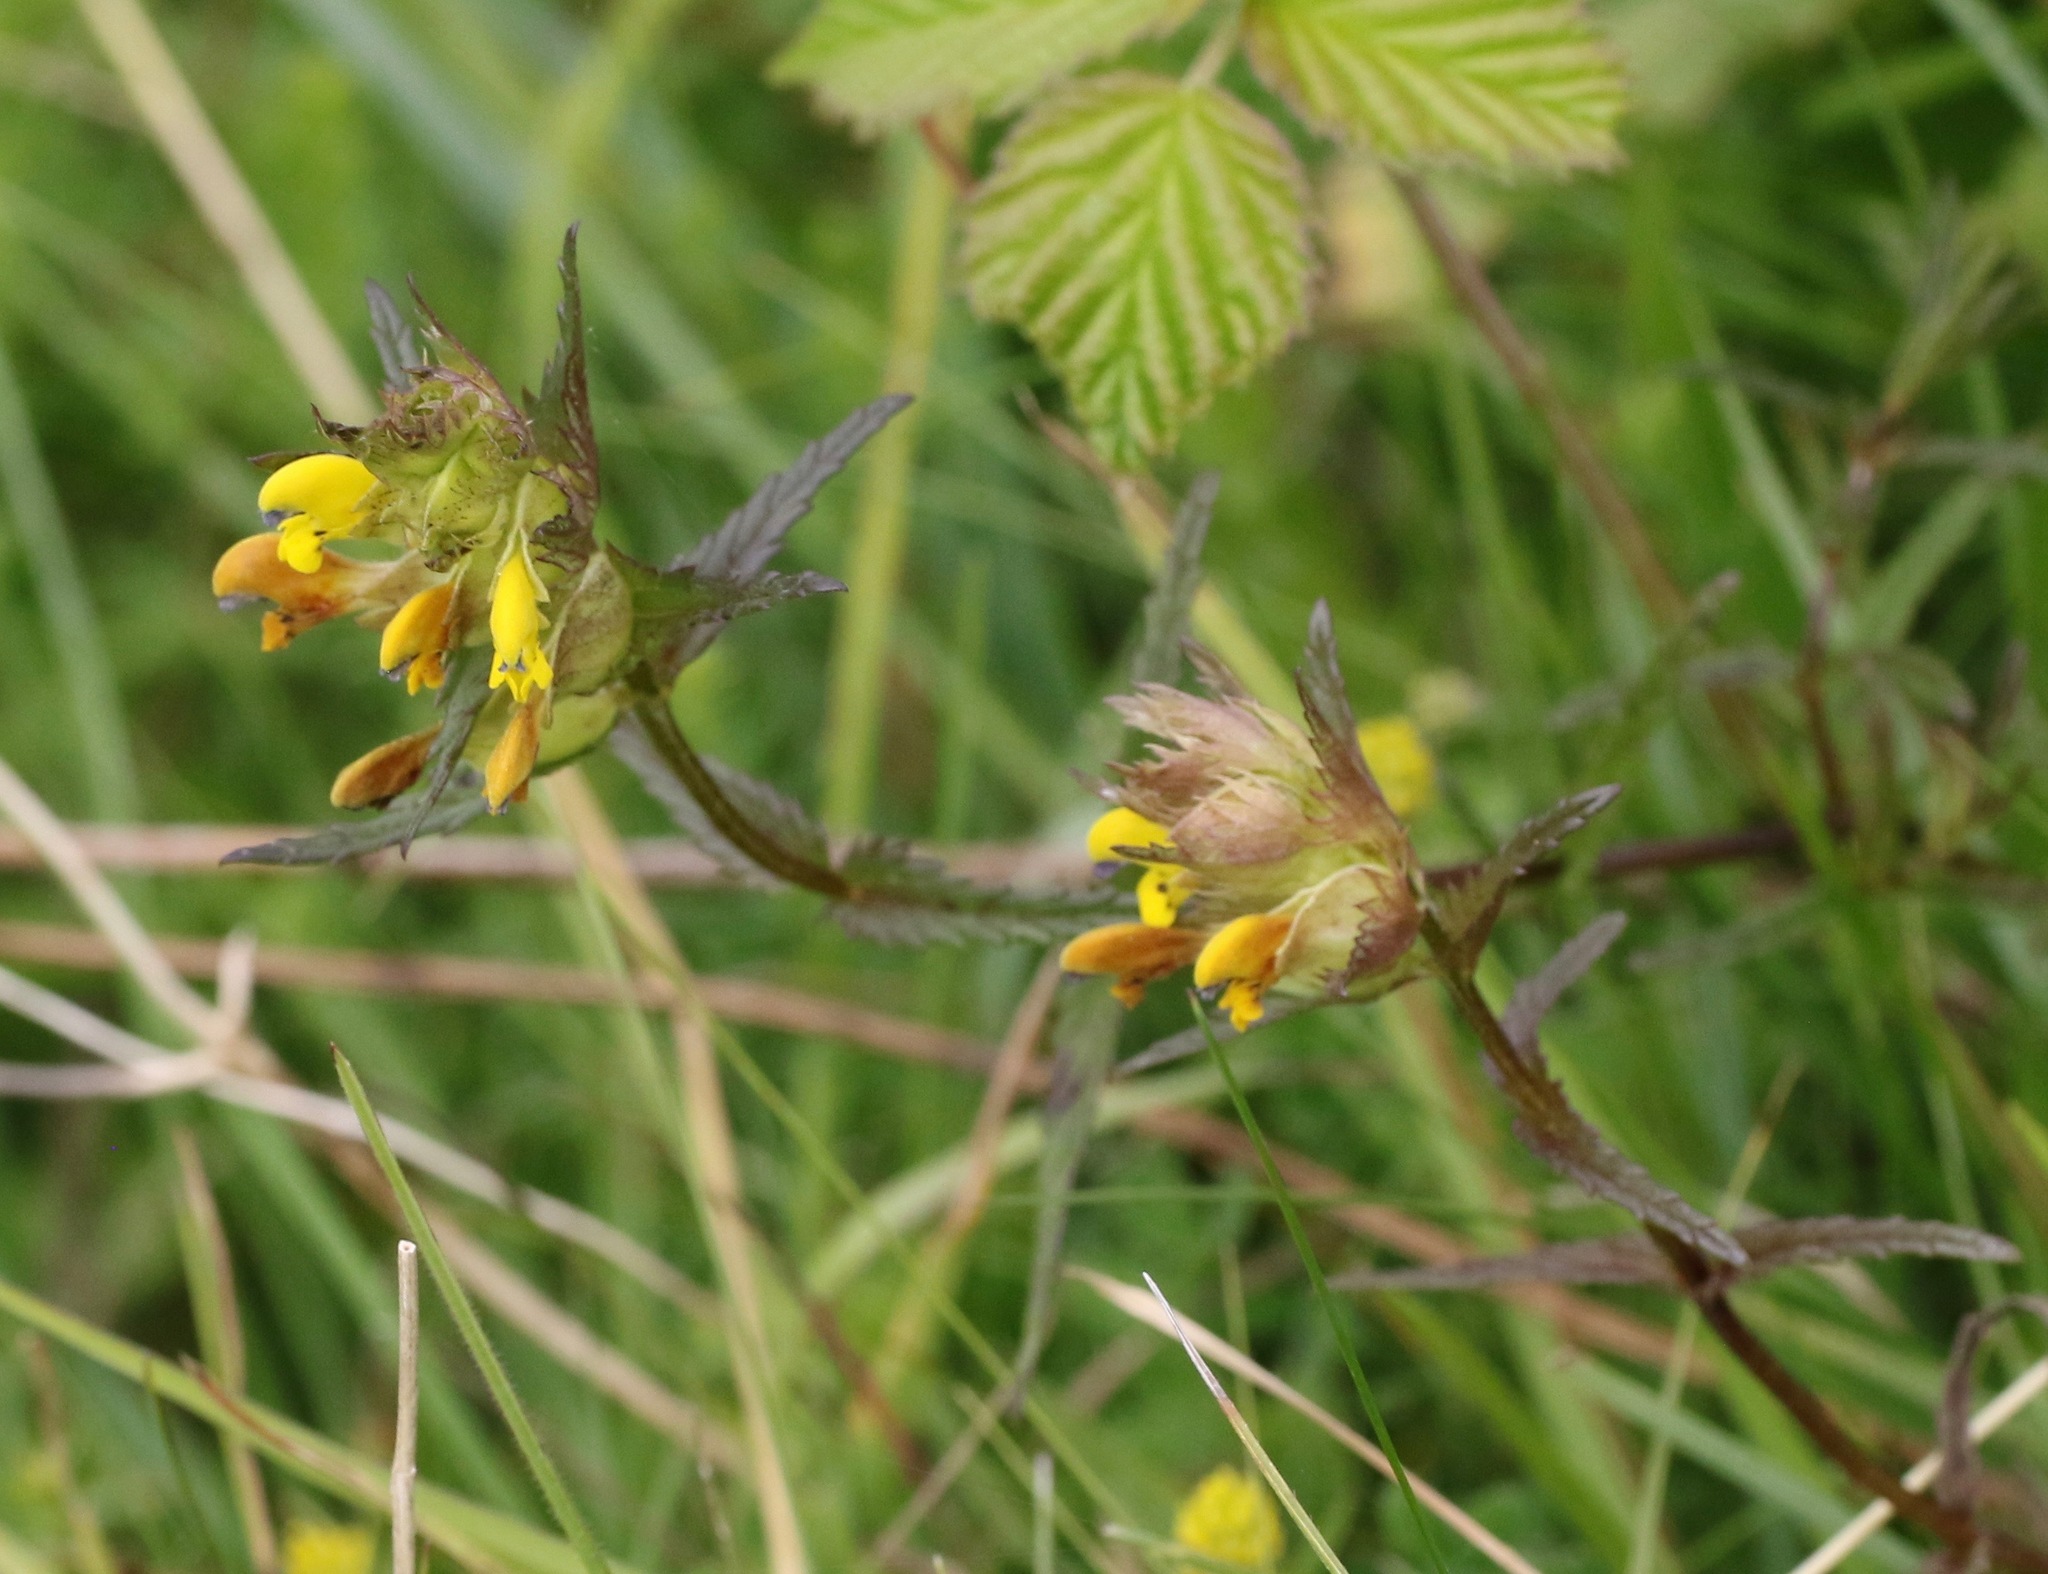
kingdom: Plantae
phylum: Tracheophyta
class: Magnoliopsida
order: Lamiales
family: Orobanchaceae
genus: Rhinanthus
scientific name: Rhinanthus minor
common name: Yellow-rattle
